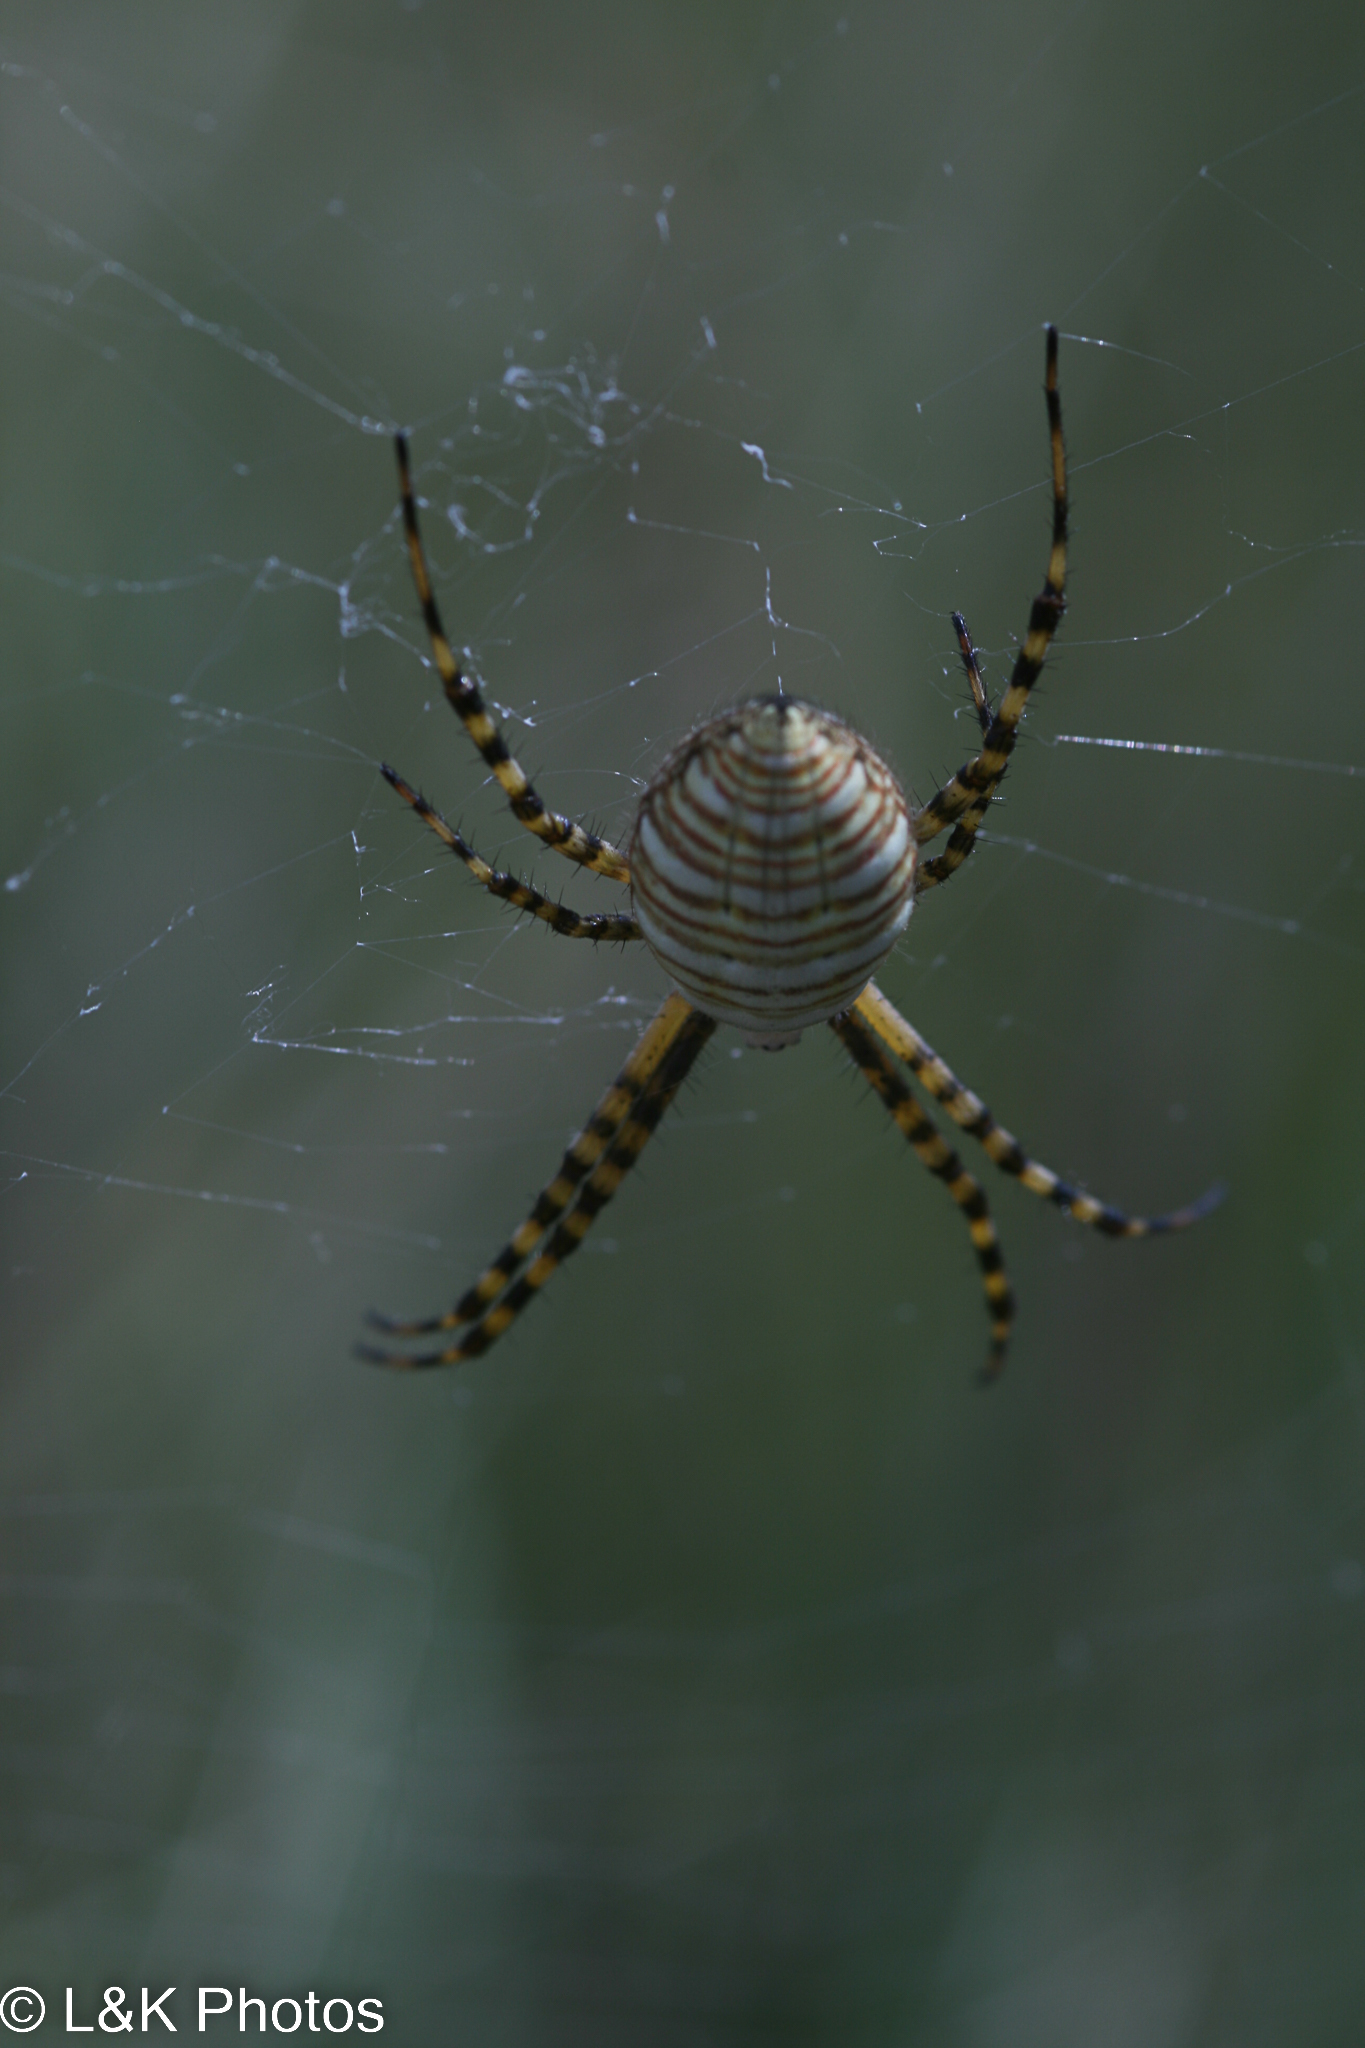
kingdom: Animalia
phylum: Arthropoda
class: Arachnida
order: Araneae
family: Araneidae
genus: Argiope
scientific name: Argiope trifasciata
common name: Banded garden spider
